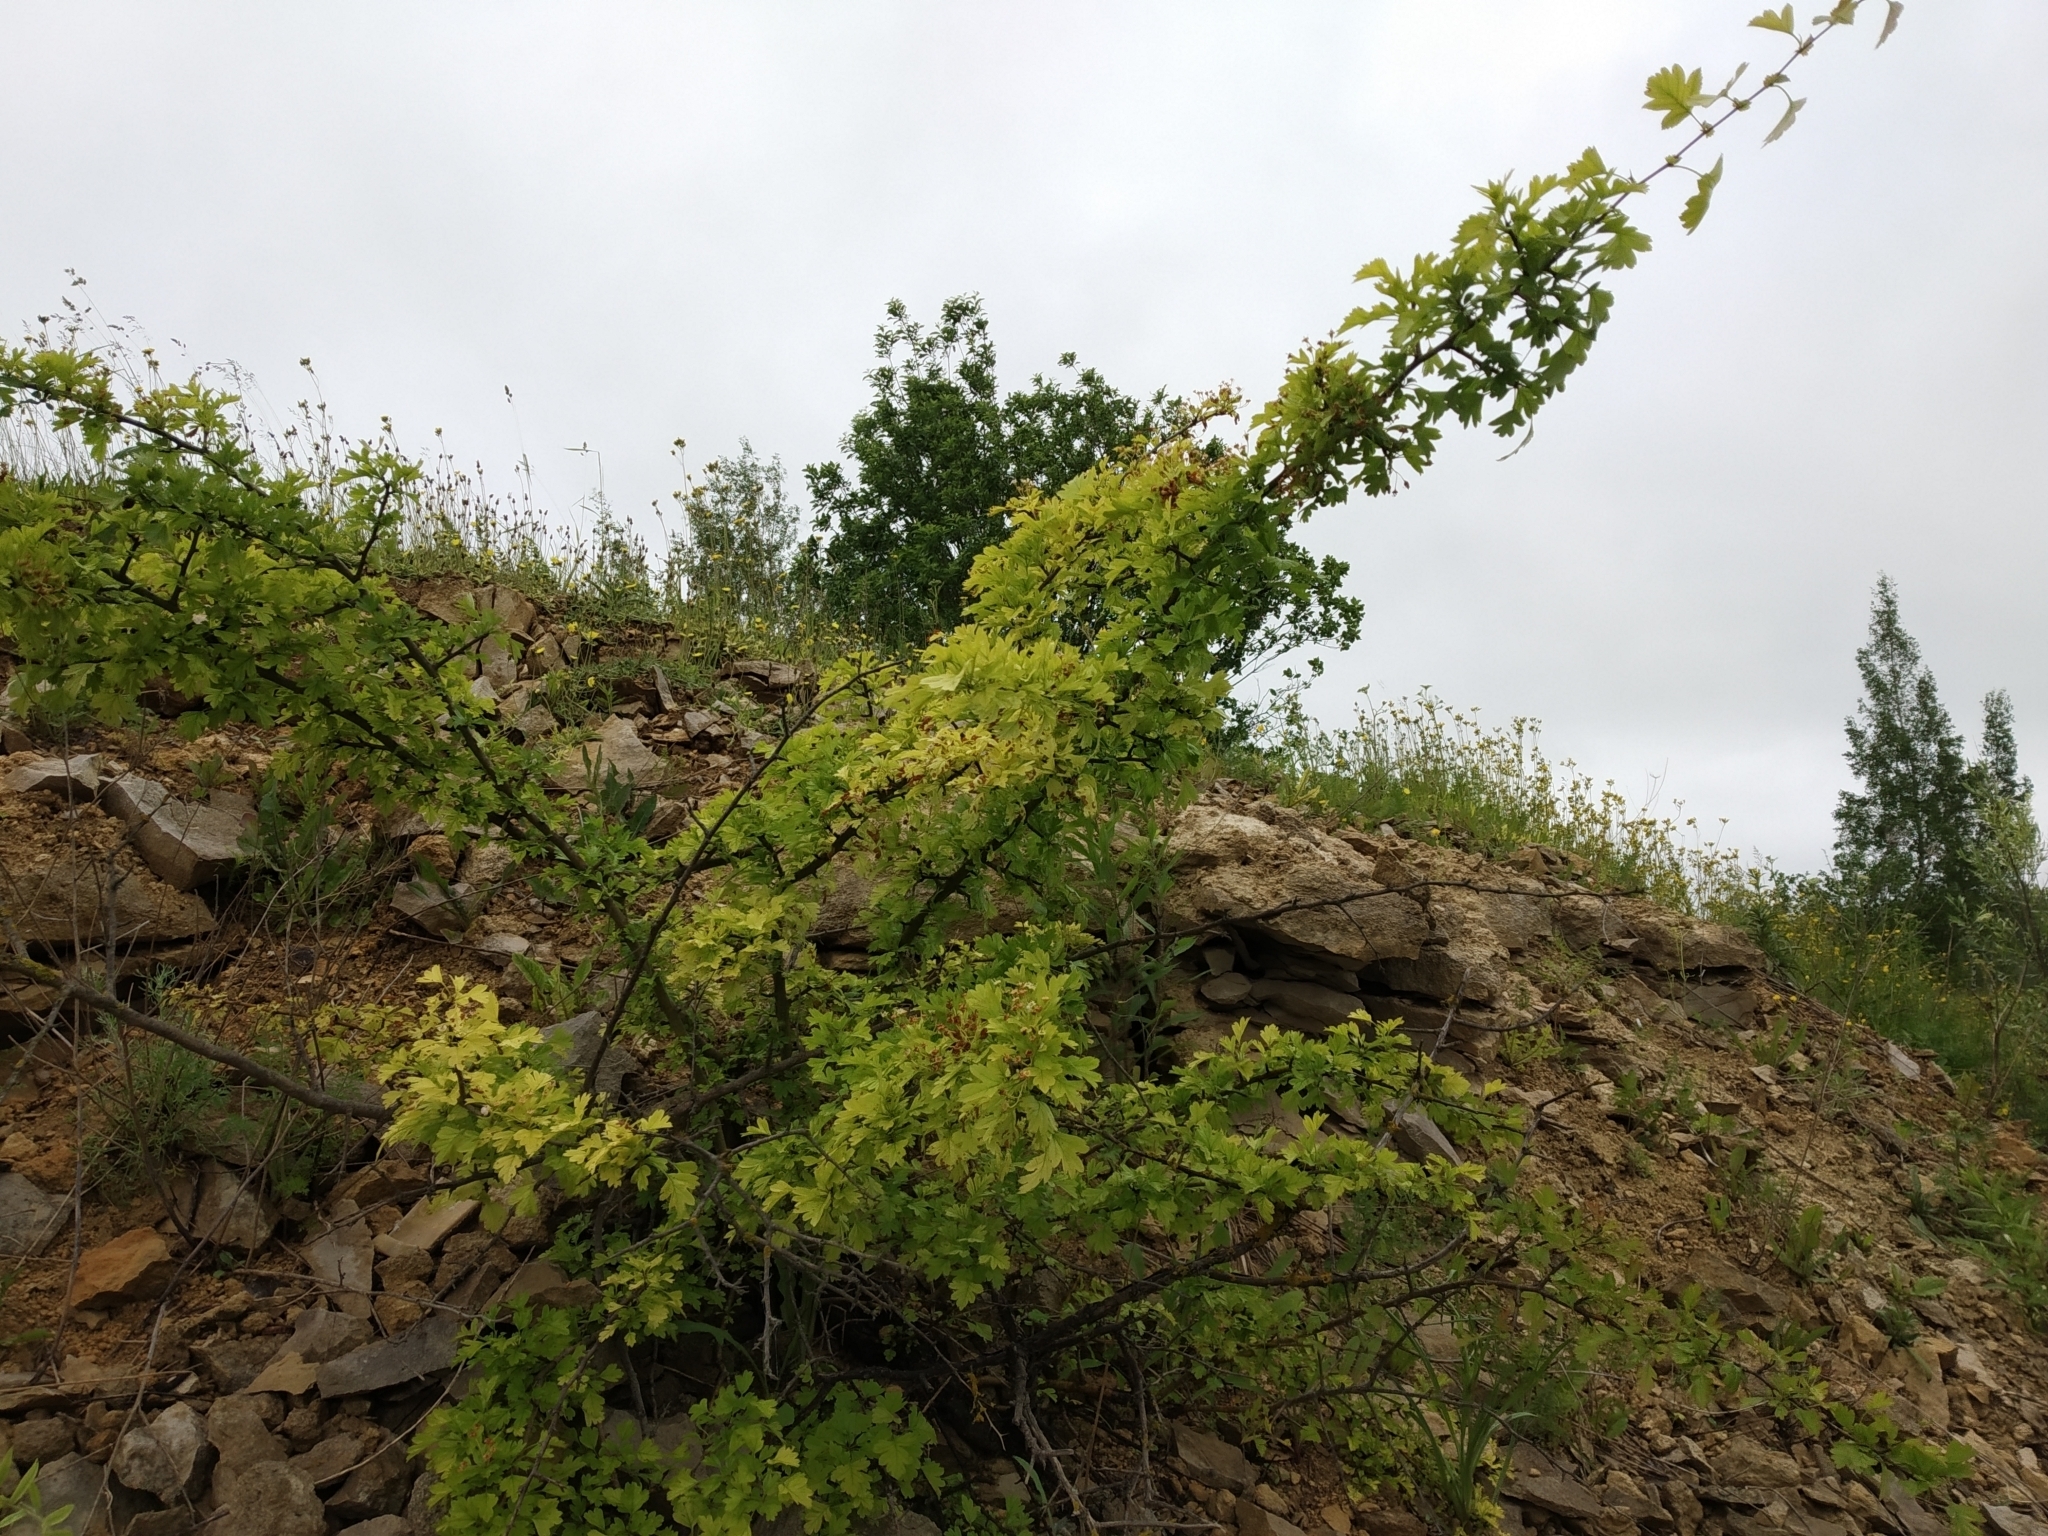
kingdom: Plantae
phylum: Tracheophyta
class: Magnoliopsida
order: Rosales
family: Rosaceae
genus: Crataegus
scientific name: Crataegus monogyna
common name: Hawthorn
